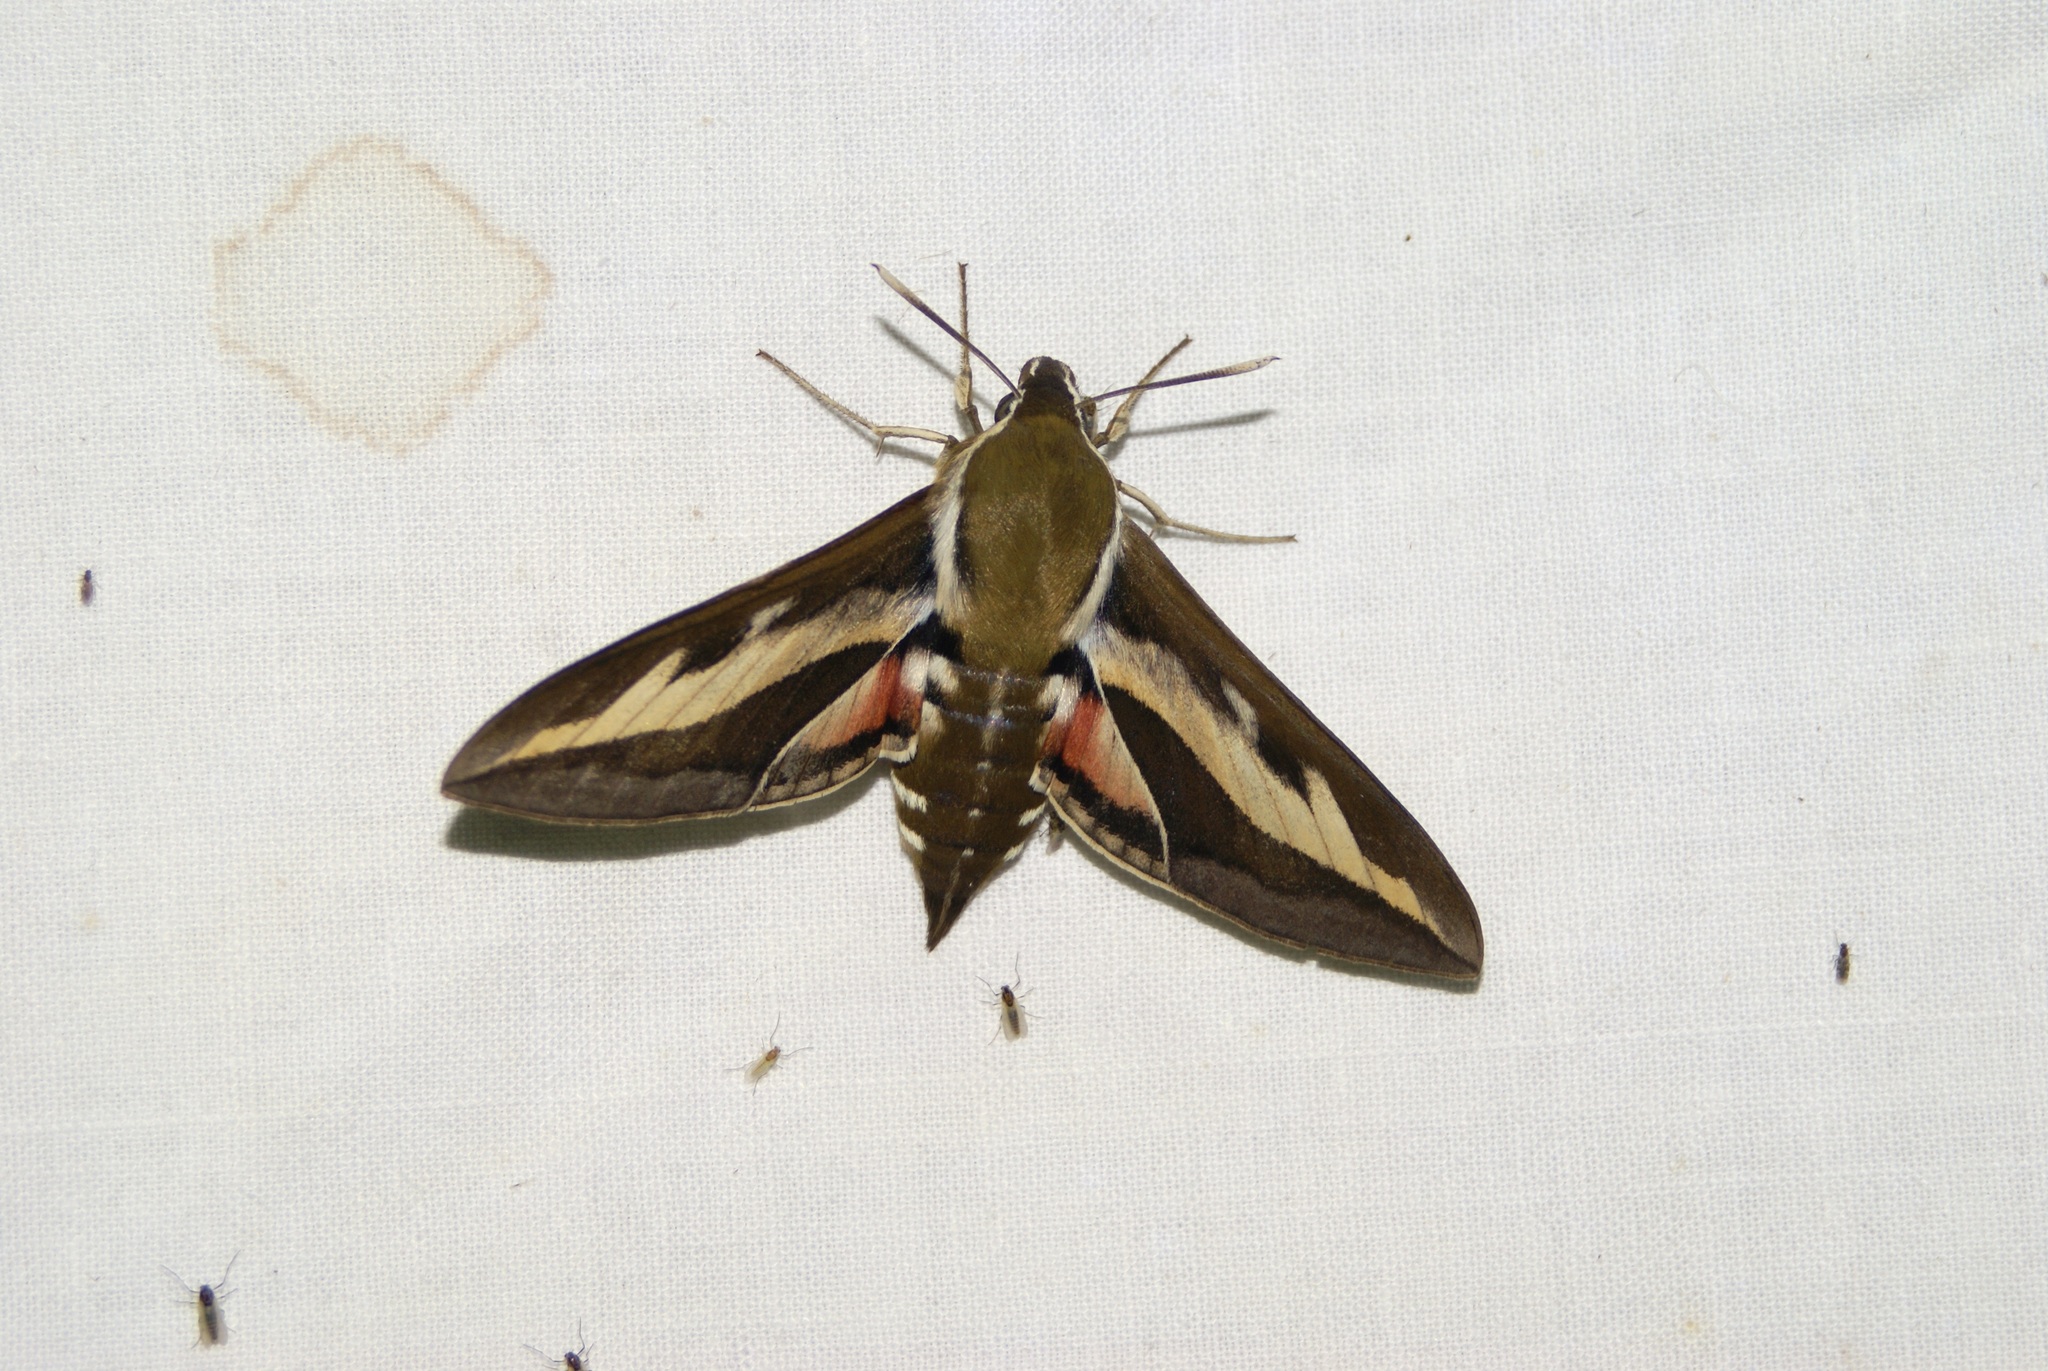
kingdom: Animalia
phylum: Arthropoda
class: Insecta
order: Lepidoptera
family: Sphingidae
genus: Hyles
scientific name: Hyles gallii
